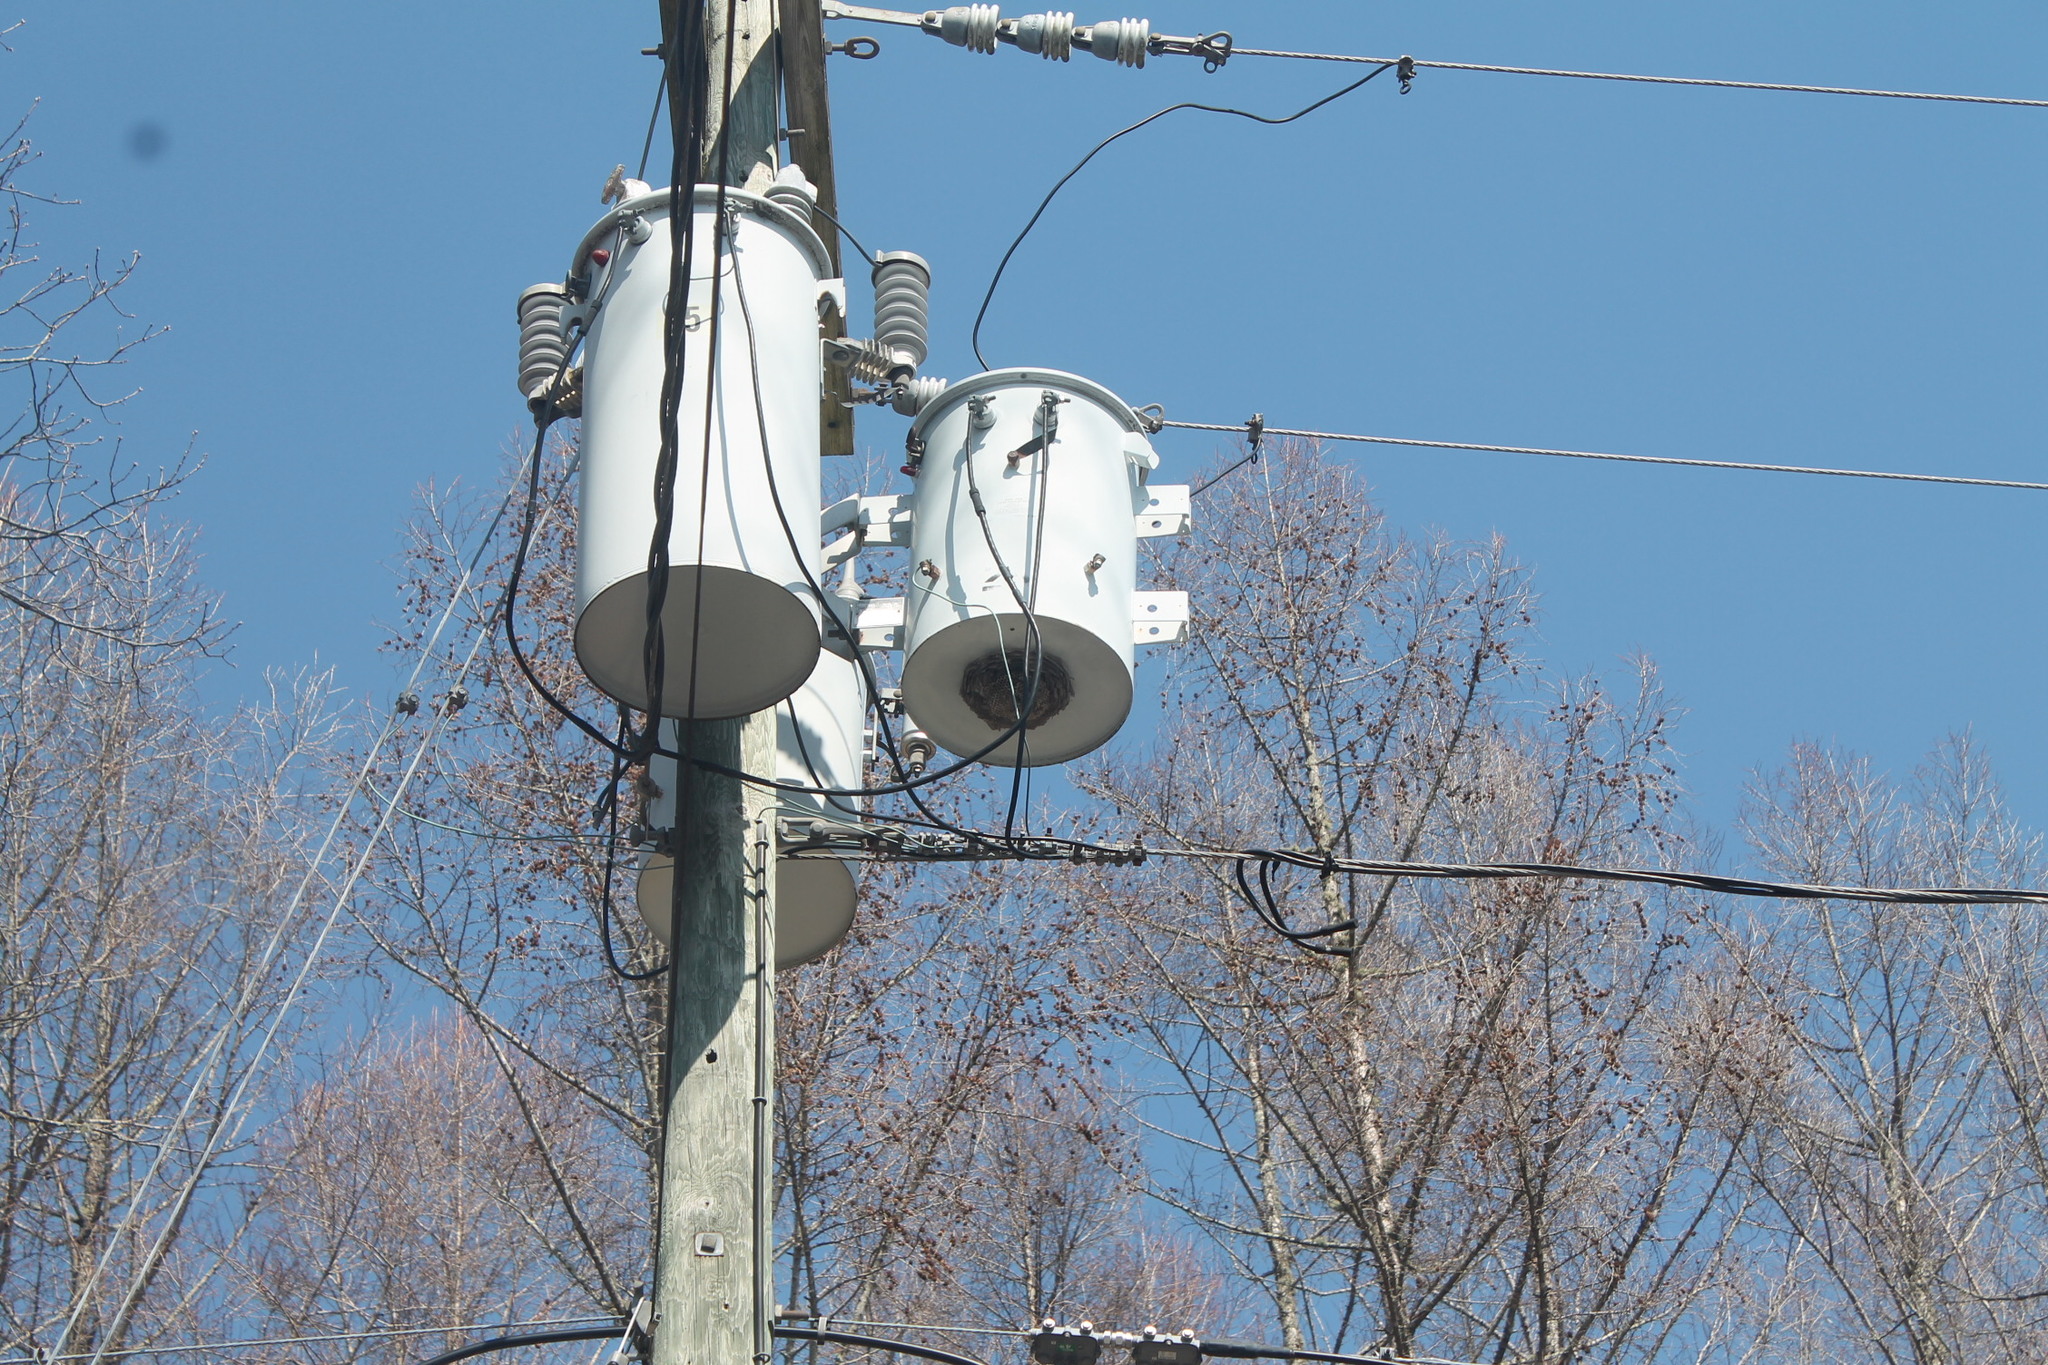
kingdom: Animalia
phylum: Arthropoda
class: Insecta
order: Hymenoptera
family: Vespidae
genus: Dolichovespula
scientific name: Dolichovespula
